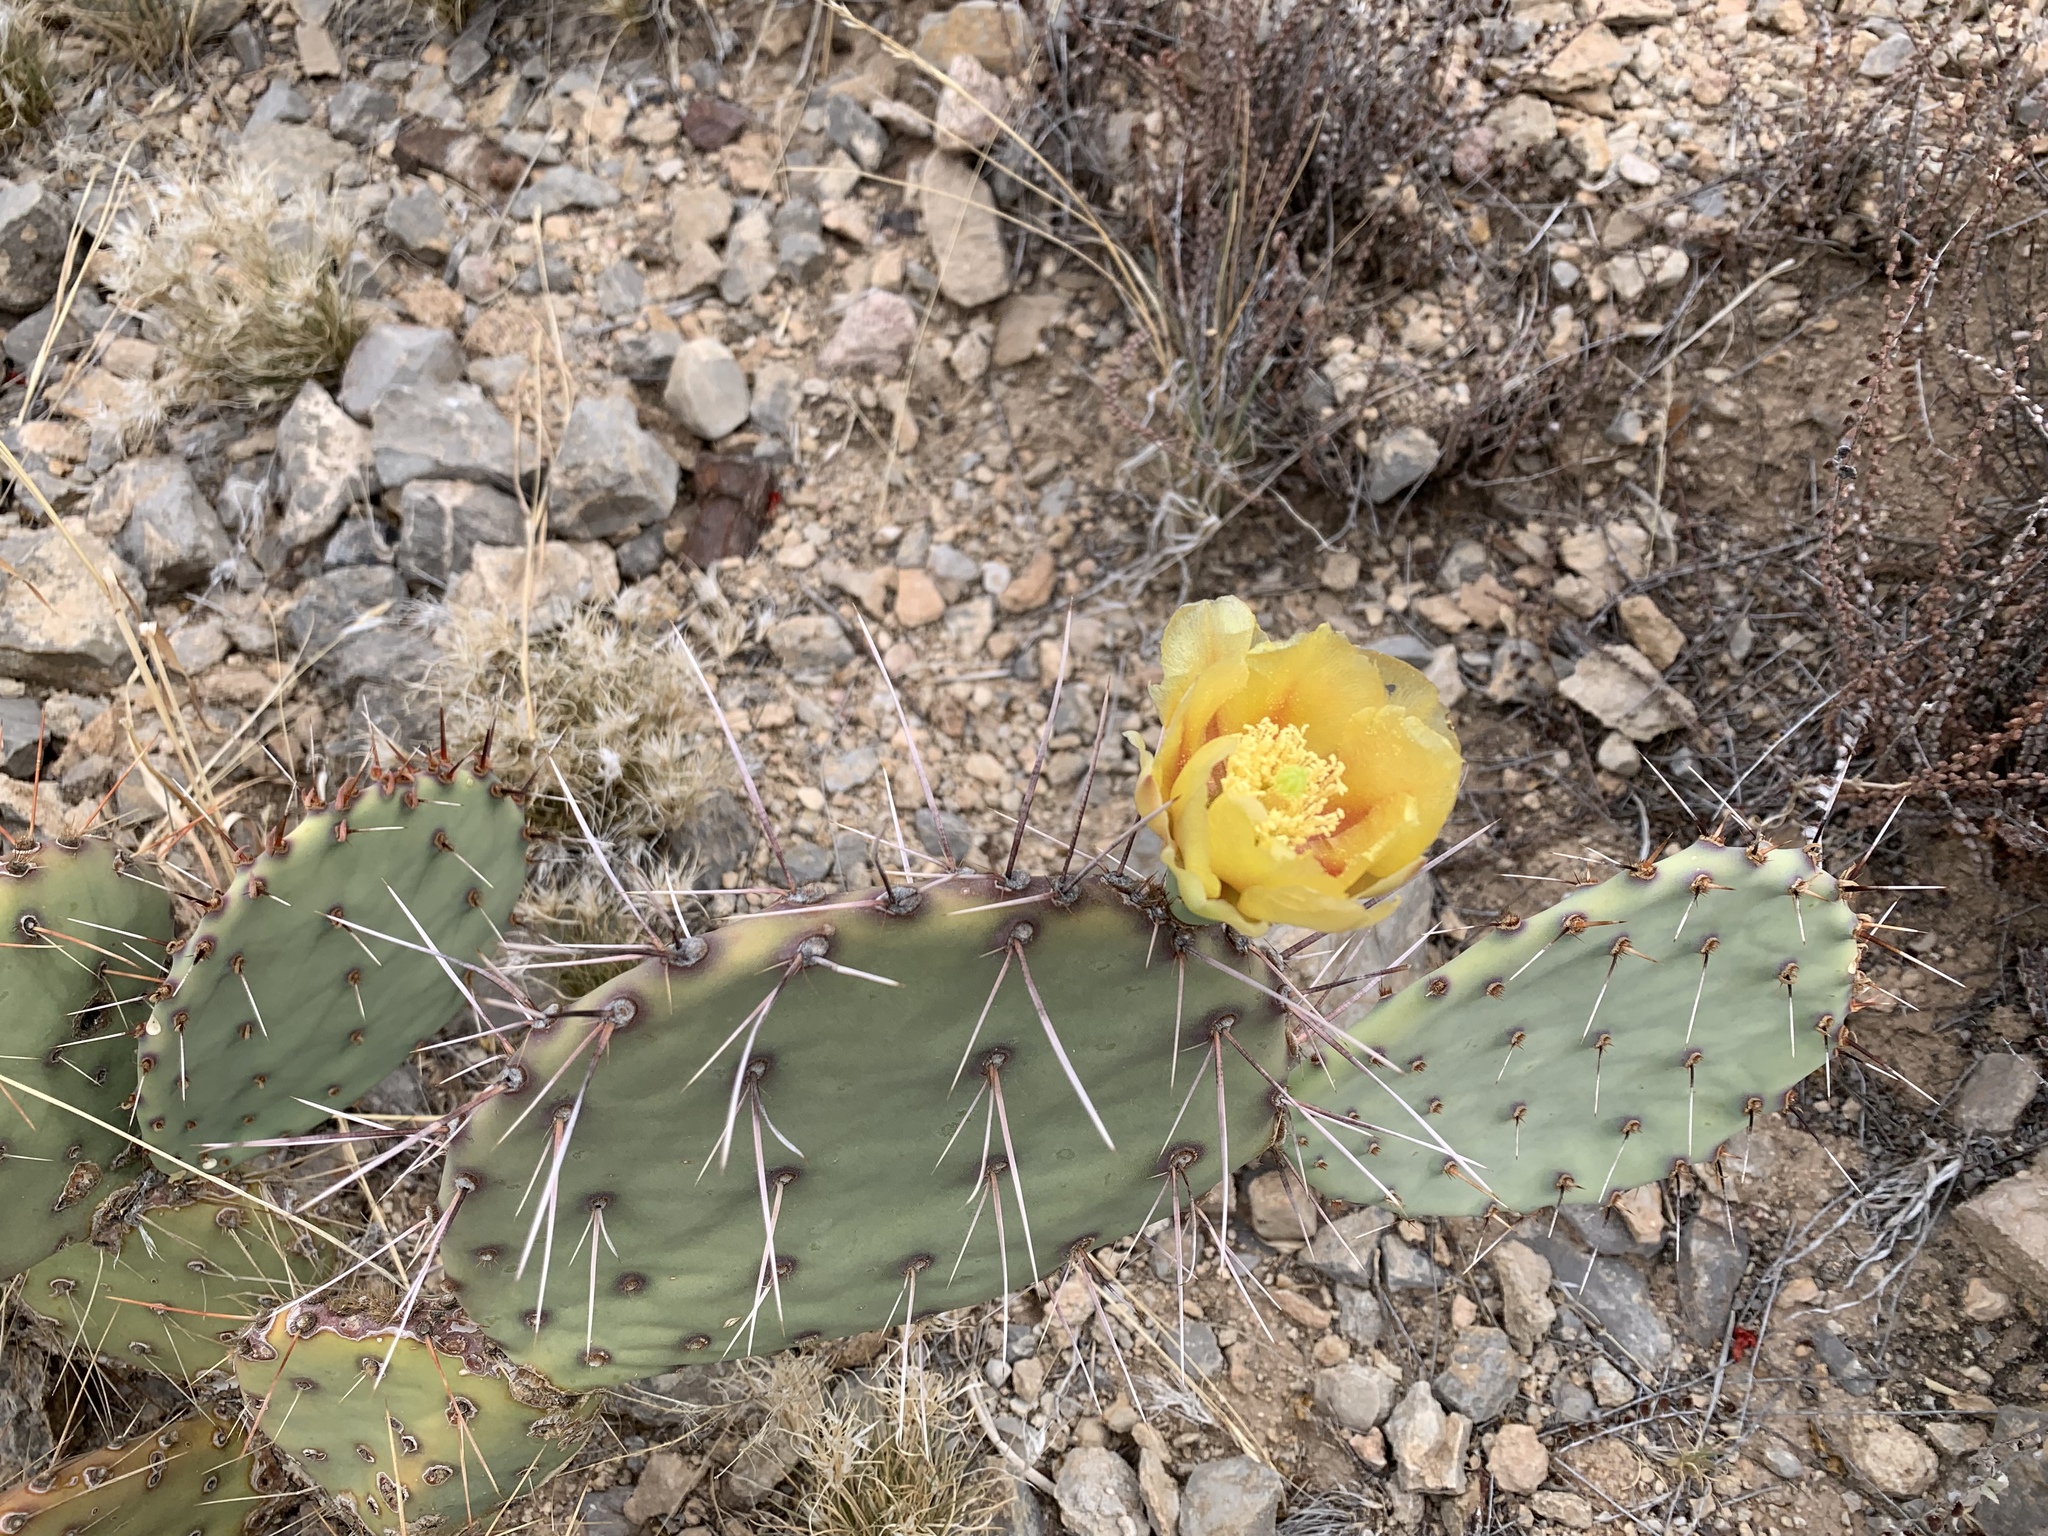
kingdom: Plantae
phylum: Tracheophyta
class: Magnoliopsida
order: Caryophyllales
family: Cactaceae
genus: Opuntia
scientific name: Opuntia phaeacantha
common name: New mexico prickly-pear
